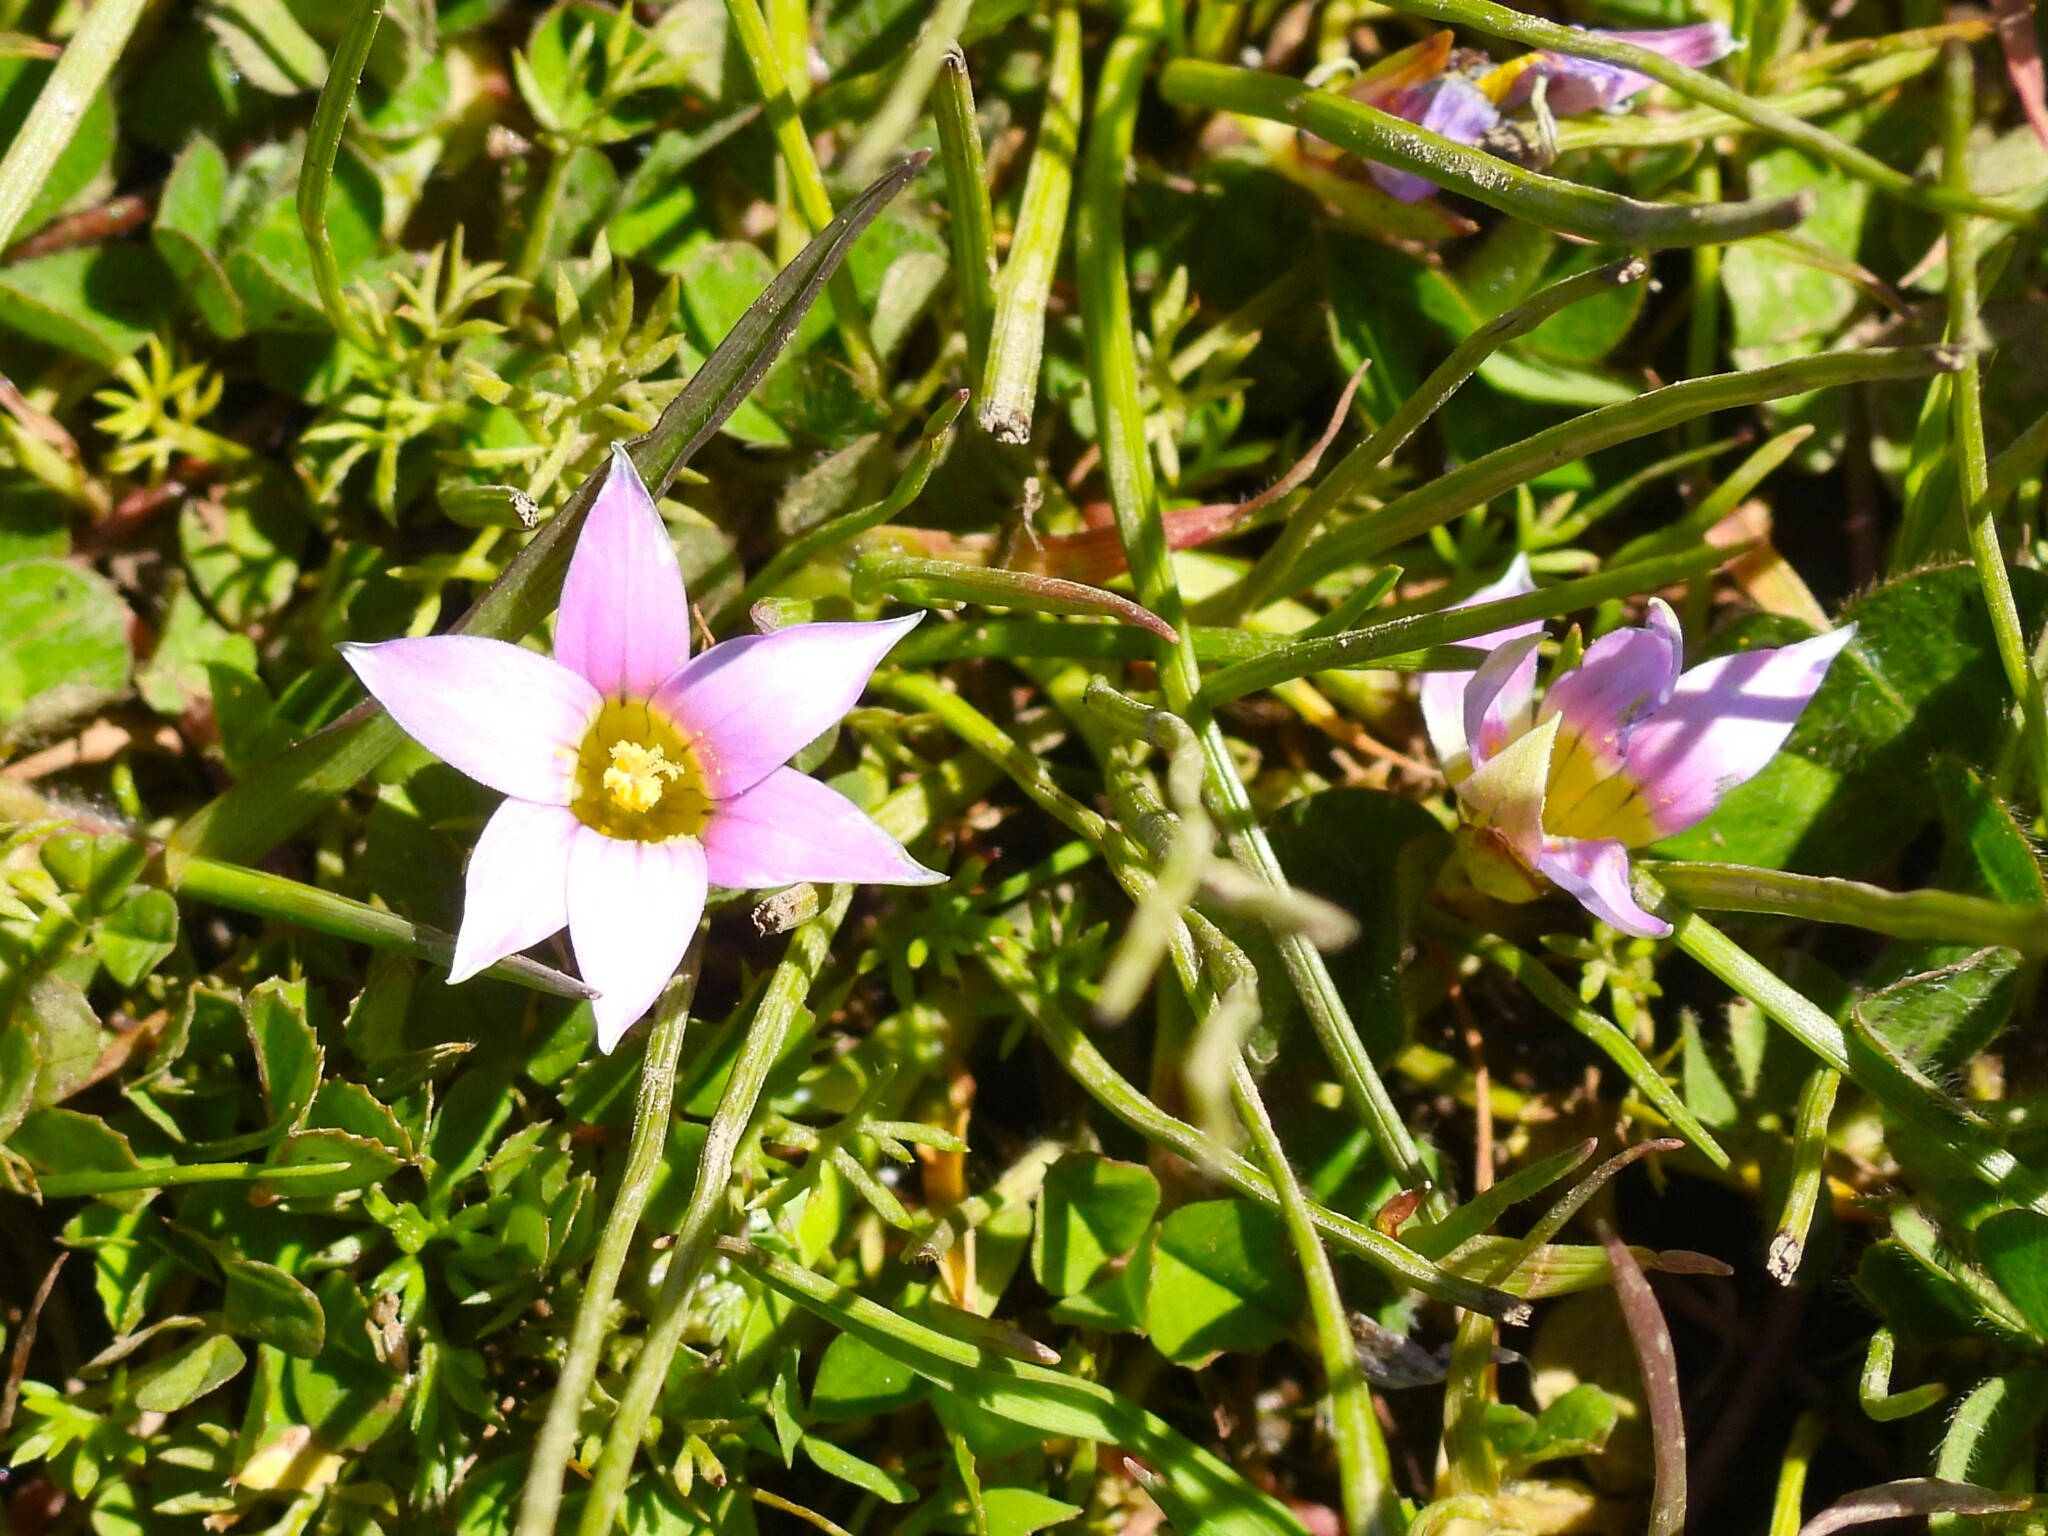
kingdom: Plantae
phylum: Tracheophyta
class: Liliopsida
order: Asparagales
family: Iridaceae
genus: Romulea
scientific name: Romulea rosea
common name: Oniongrass
